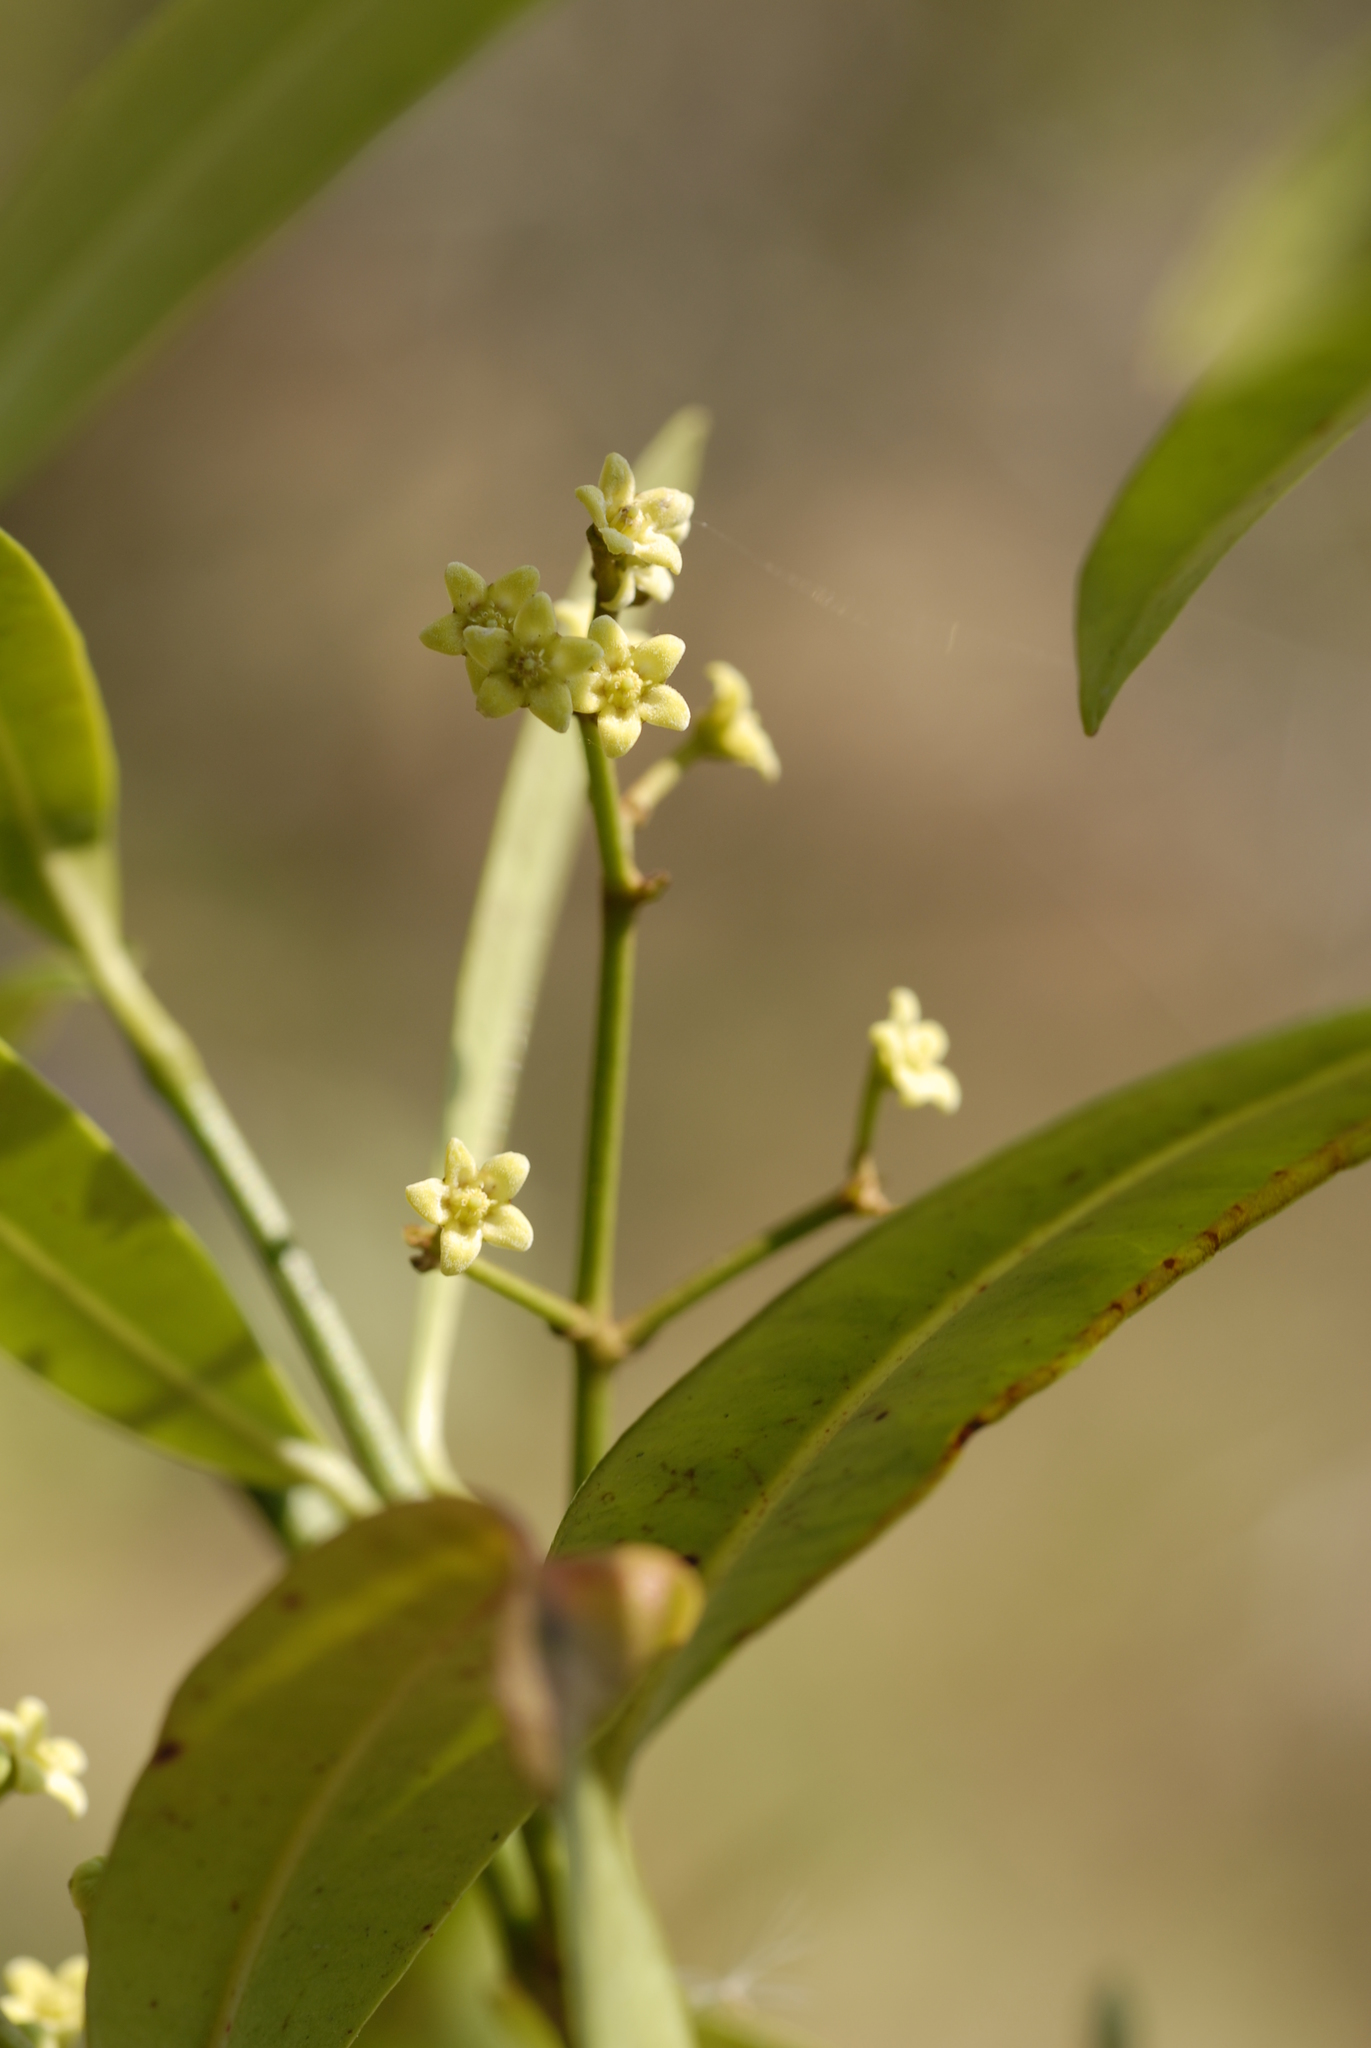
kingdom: Plantae
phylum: Tracheophyta
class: Magnoliopsida
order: Gentianales
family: Apocynaceae
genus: Secamone
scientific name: Secamone alpini
